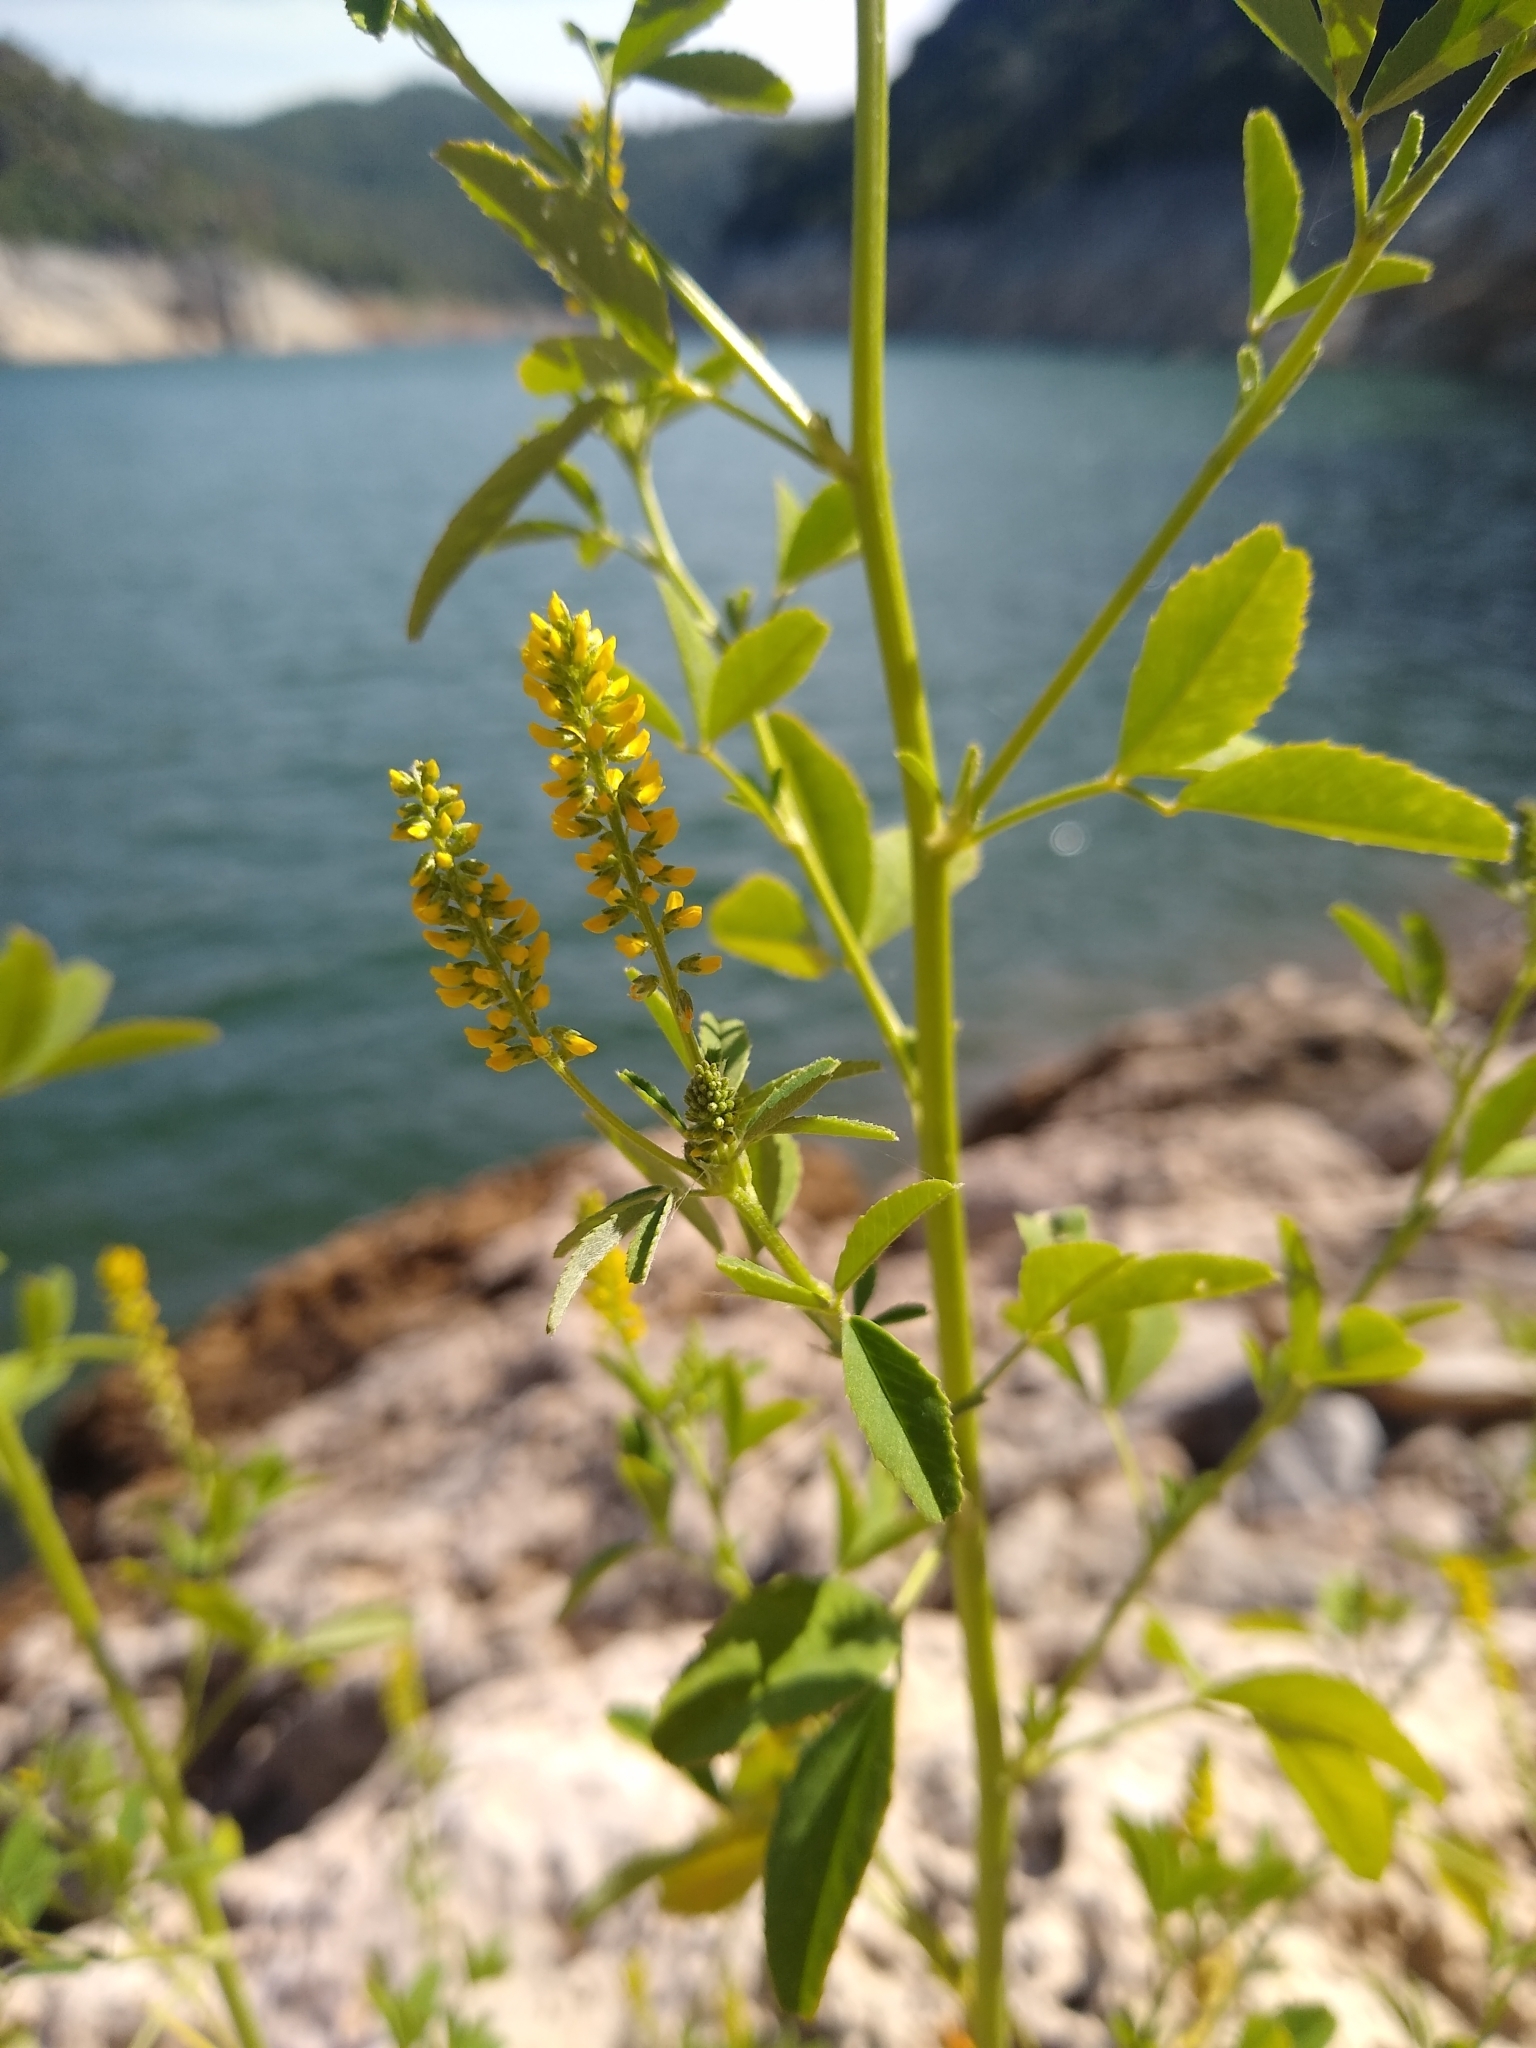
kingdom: Plantae
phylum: Tracheophyta
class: Magnoliopsida
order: Fabales
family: Fabaceae
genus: Melilotus
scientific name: Melilotus indicus
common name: Small melilot
